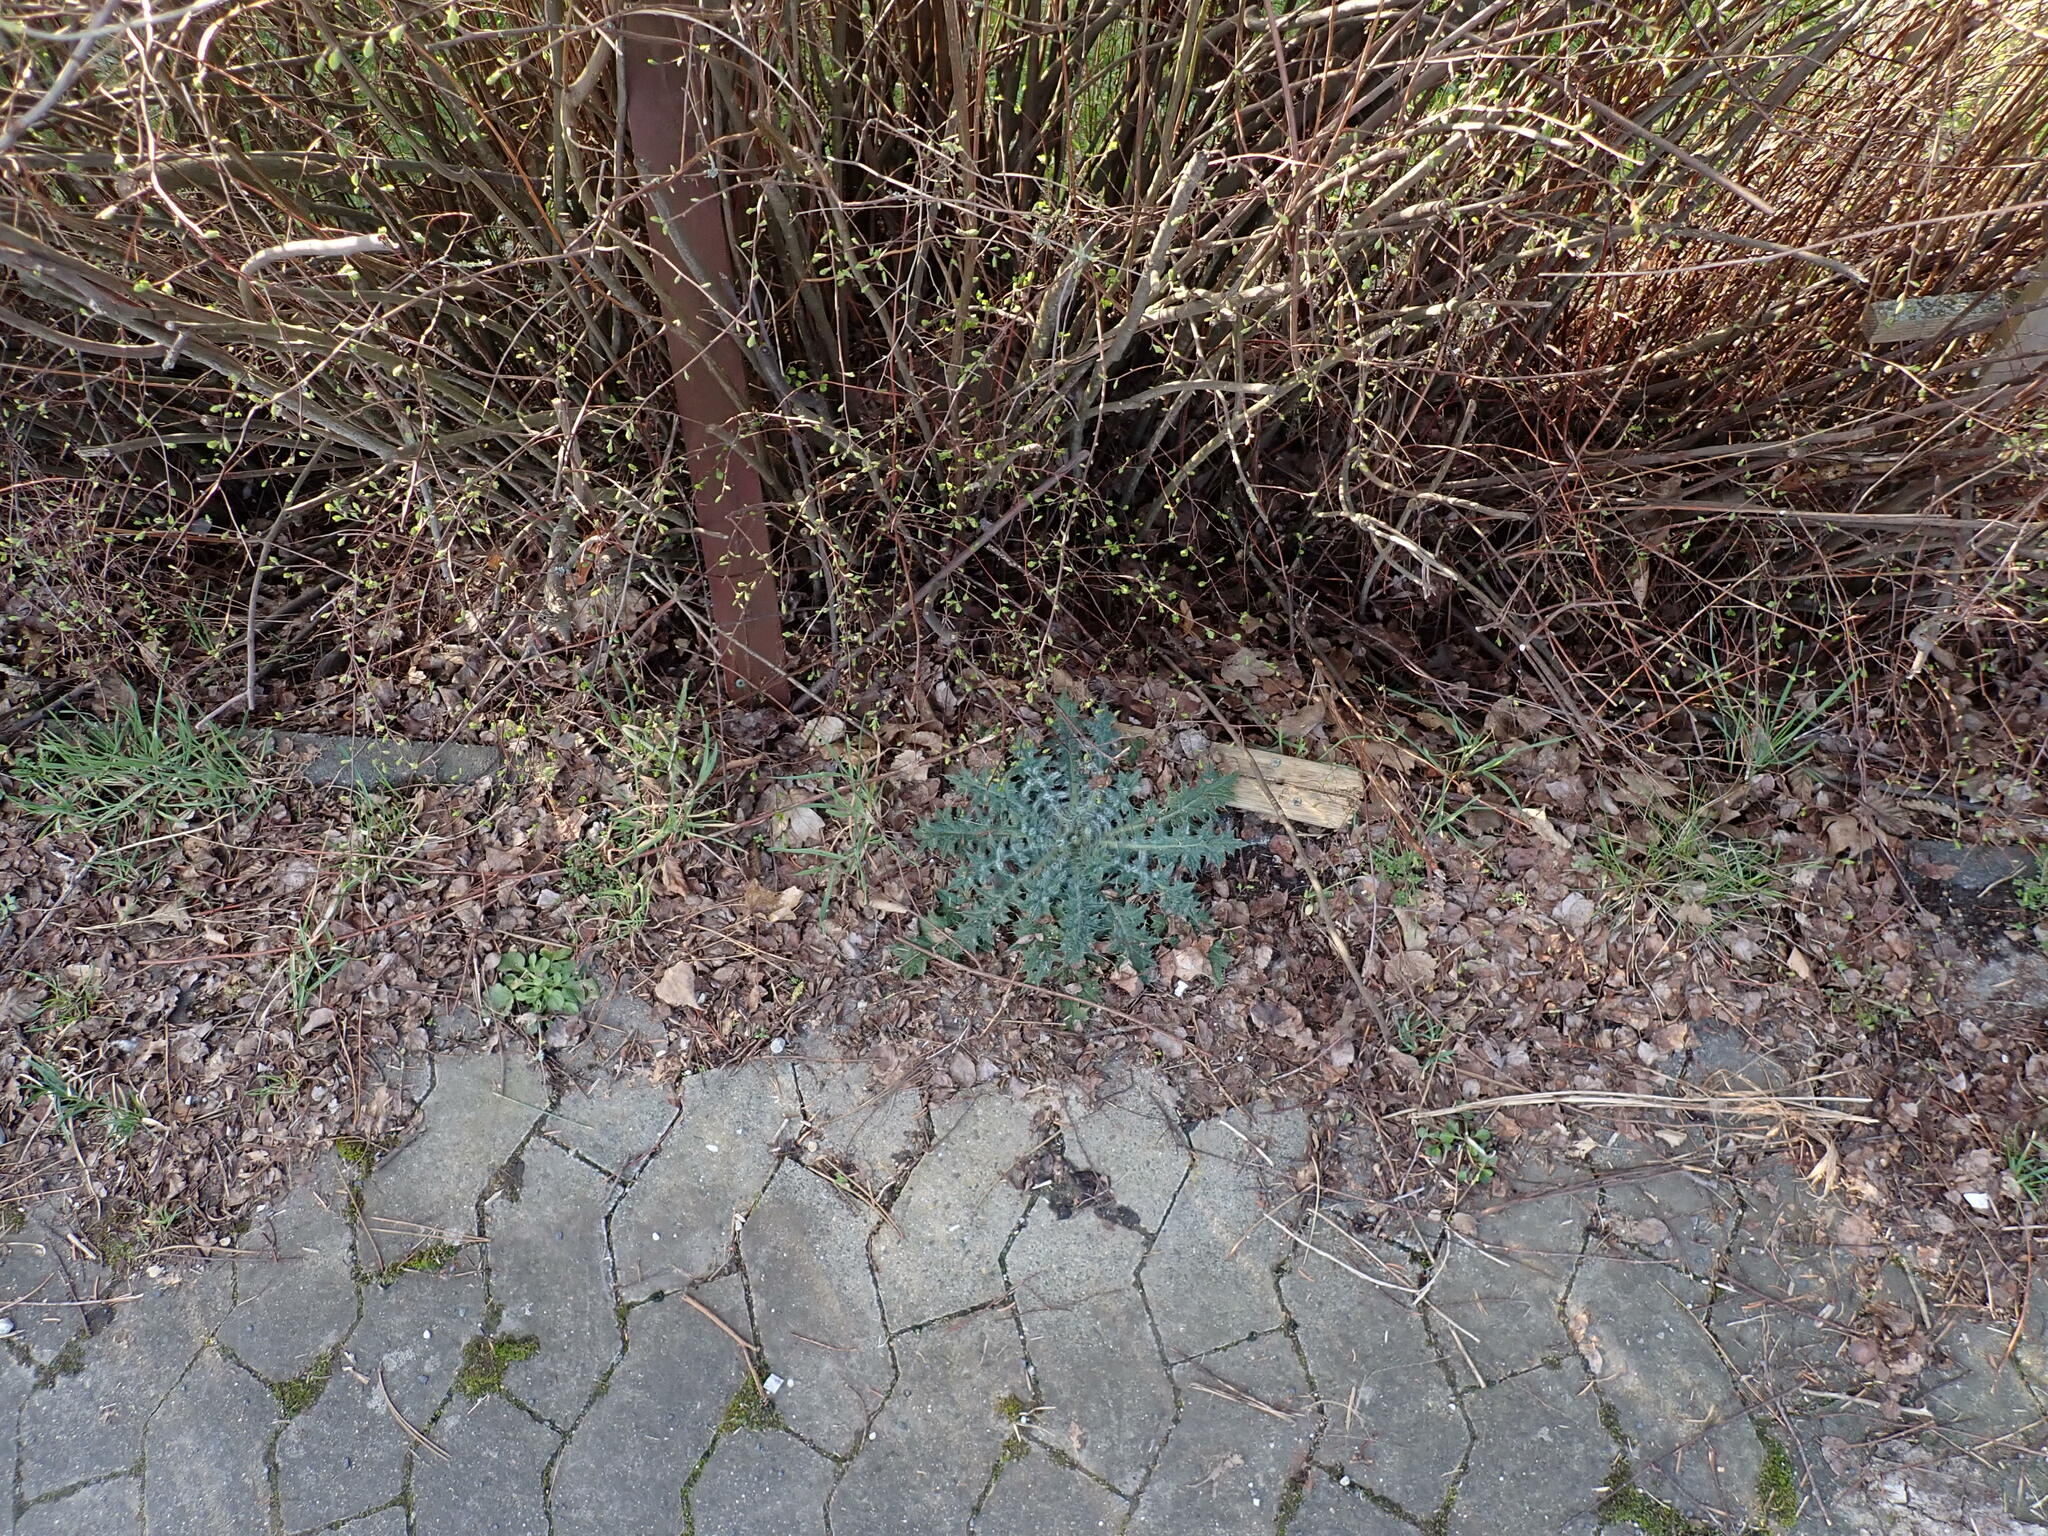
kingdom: Plantae
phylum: Tracheophyta
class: Magnoliopsida
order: Asterales
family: Asteraceae
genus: Cirsium
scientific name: Cirsium vulgare
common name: Bull thistle
